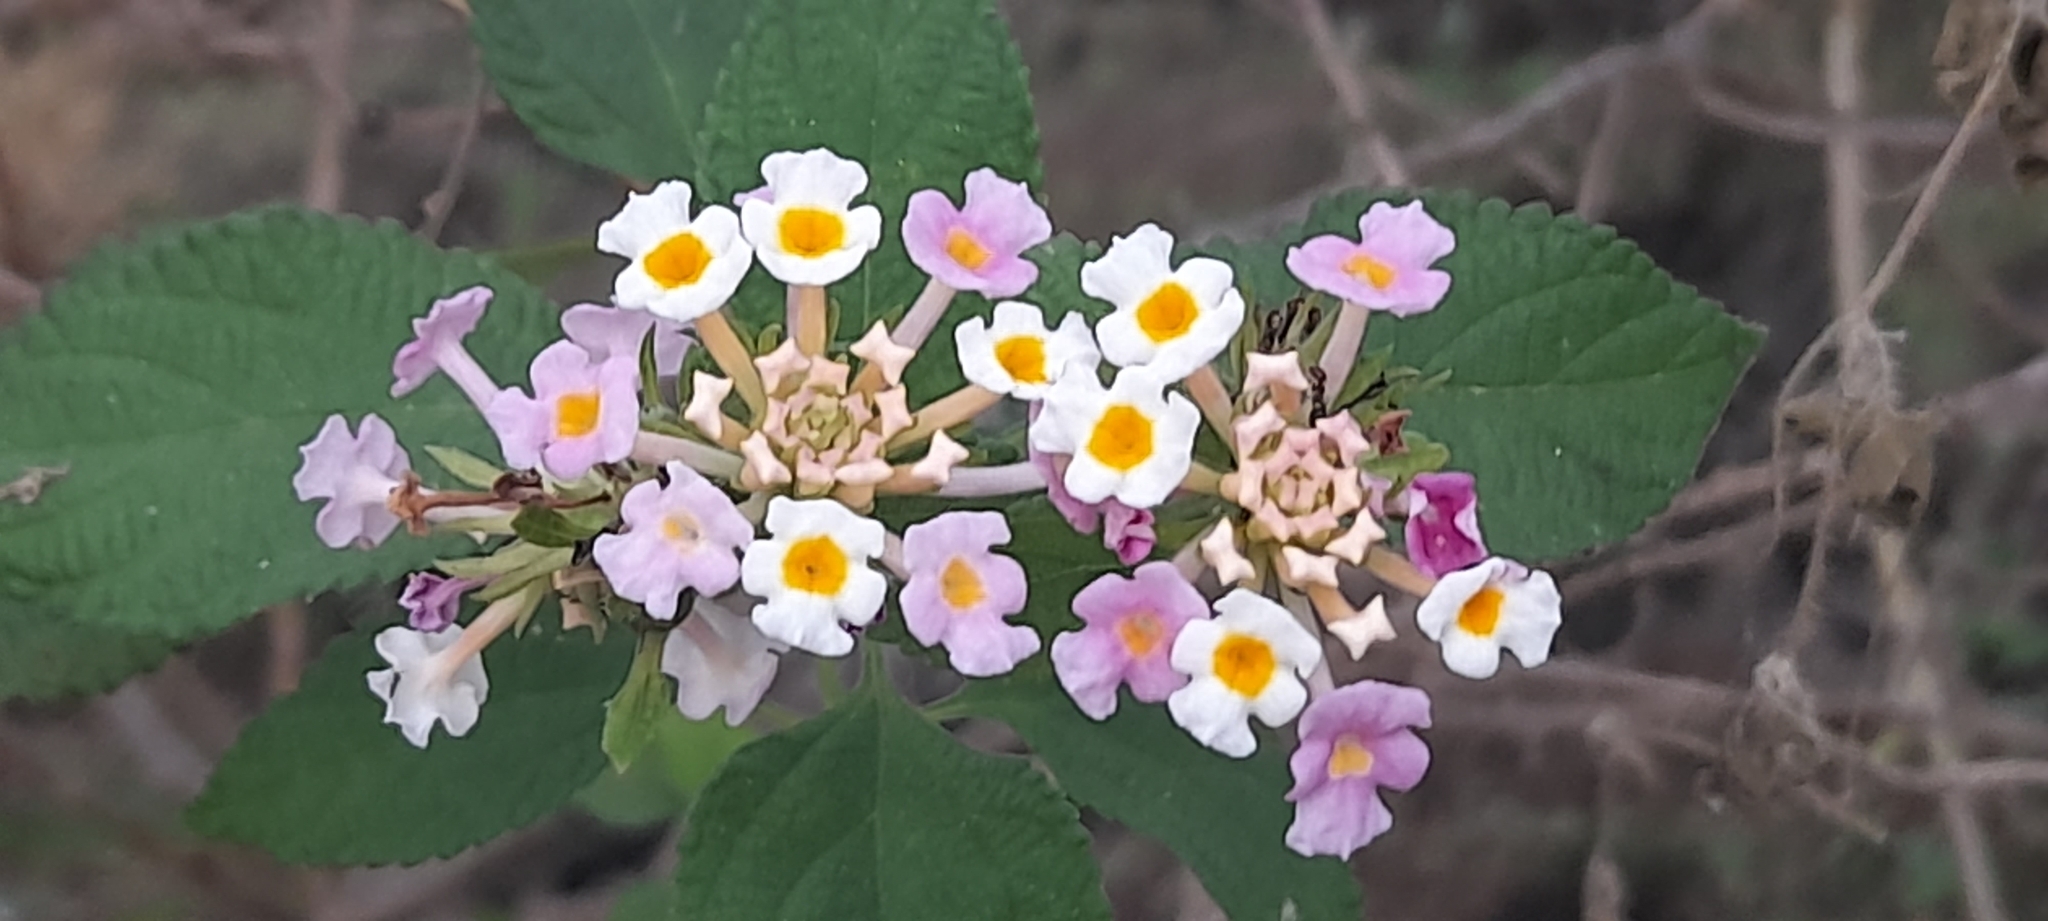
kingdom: Plantae
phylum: Tracheophyta
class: Magnoliopsida
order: Lamiales
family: Verbenaceae
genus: Lantana
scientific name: Lantana camara
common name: Lantana
